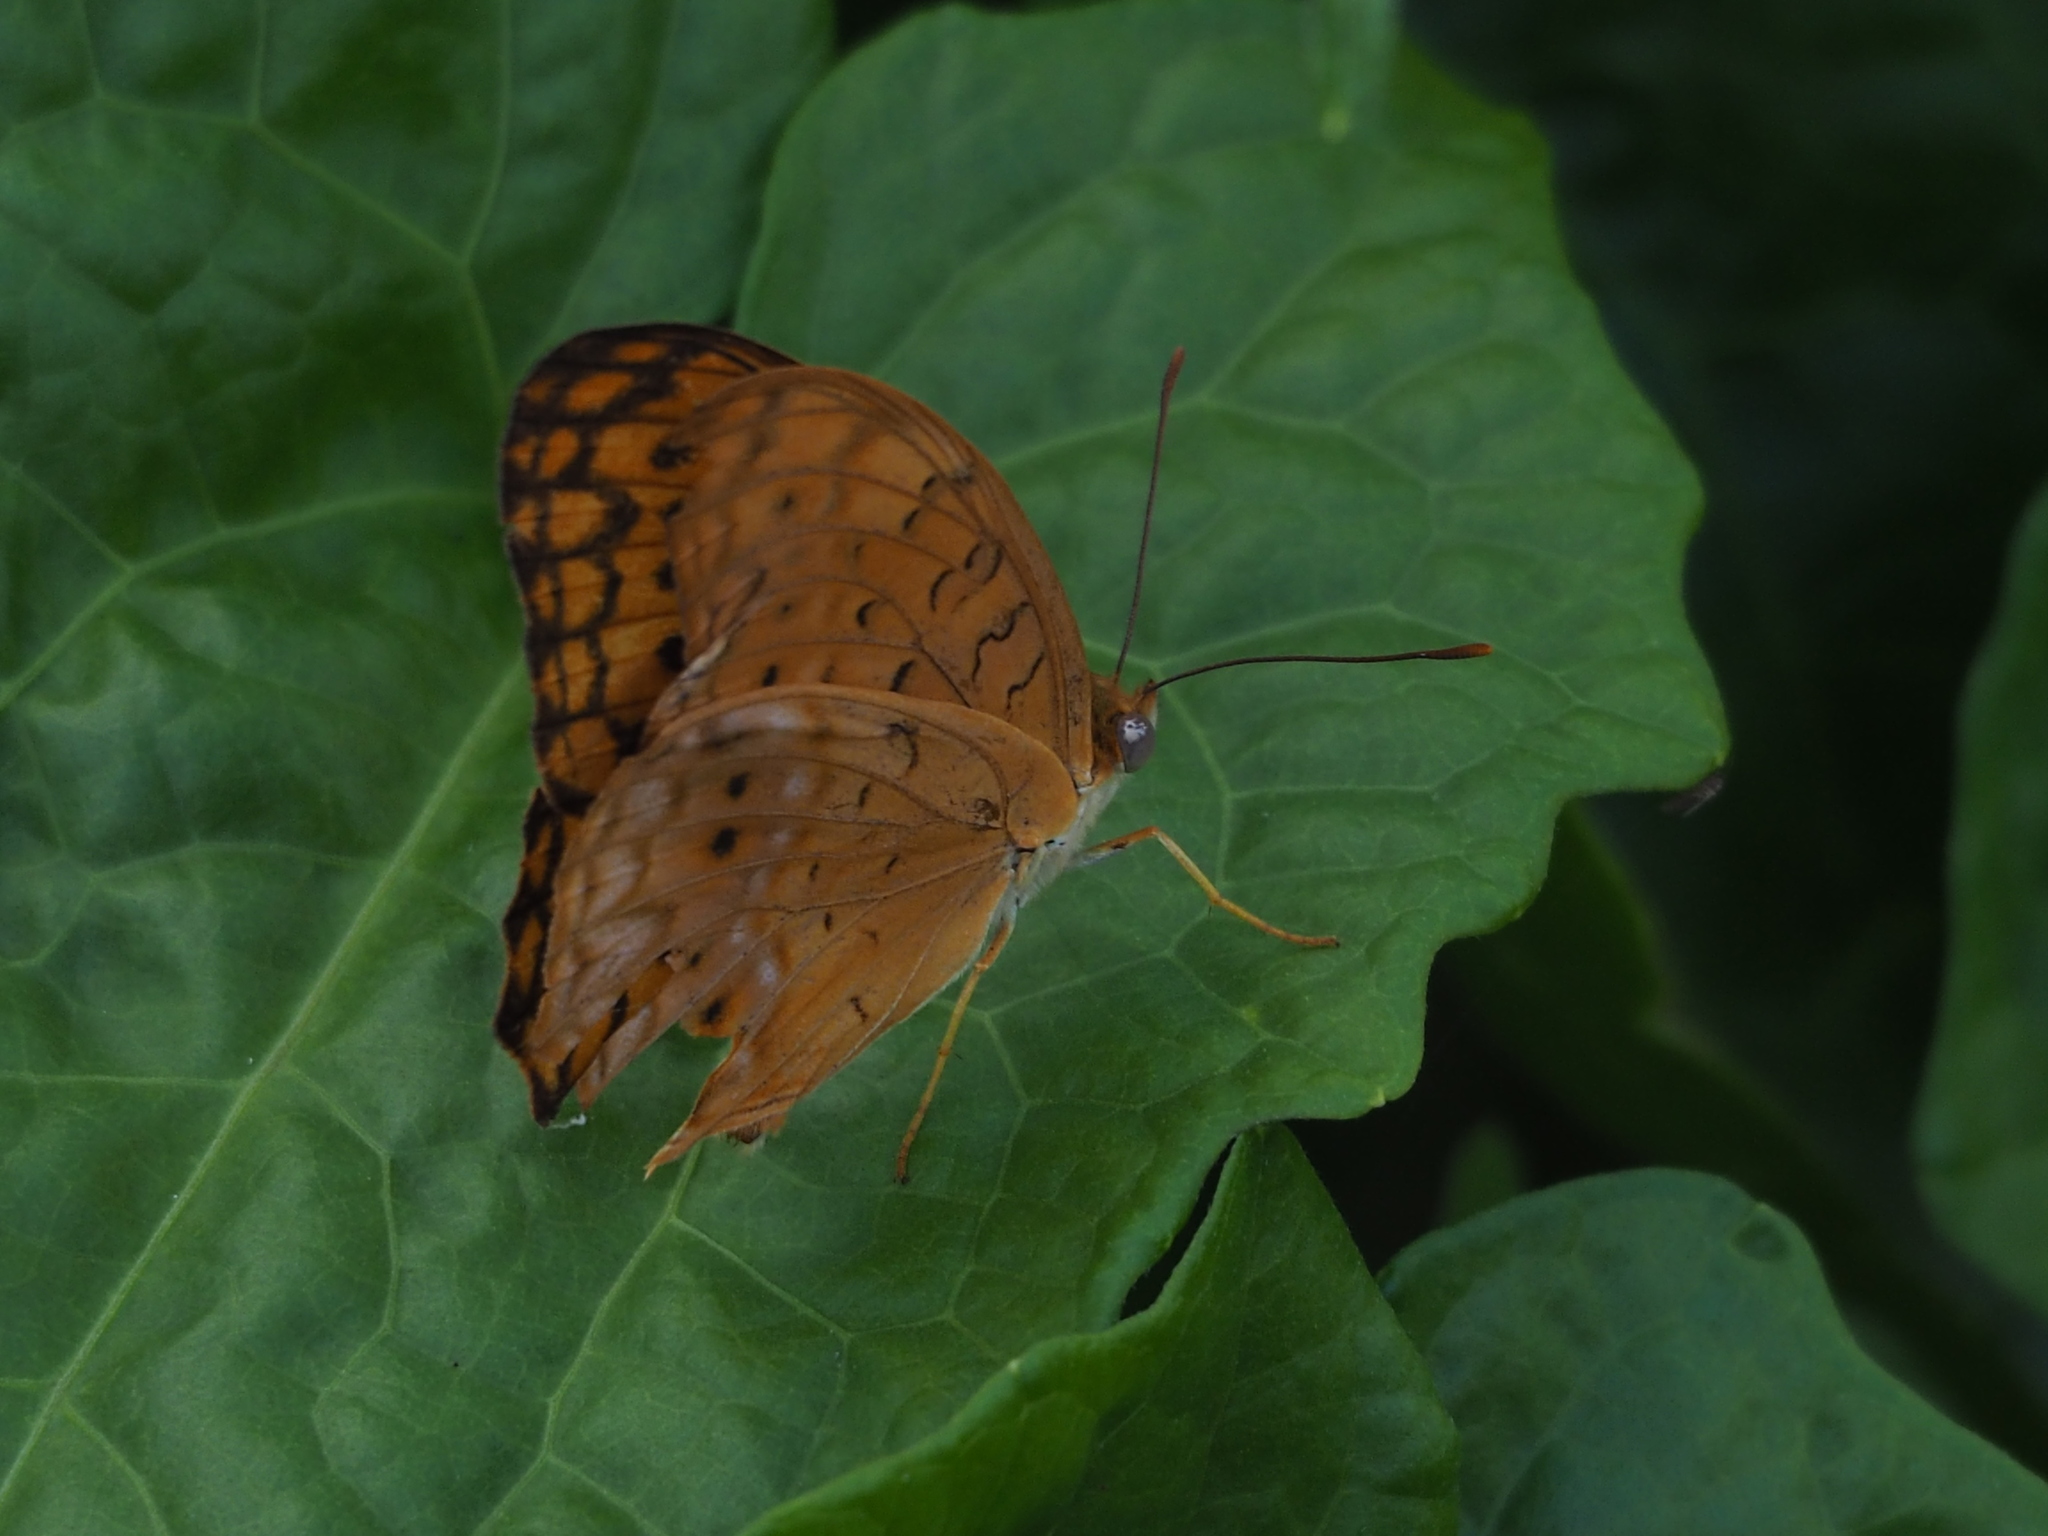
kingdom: Animalia
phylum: Arthropoda
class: Insecta
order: Lepidoptera
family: Nymphalidae
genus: Phalanta
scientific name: Phalanta phalantha
